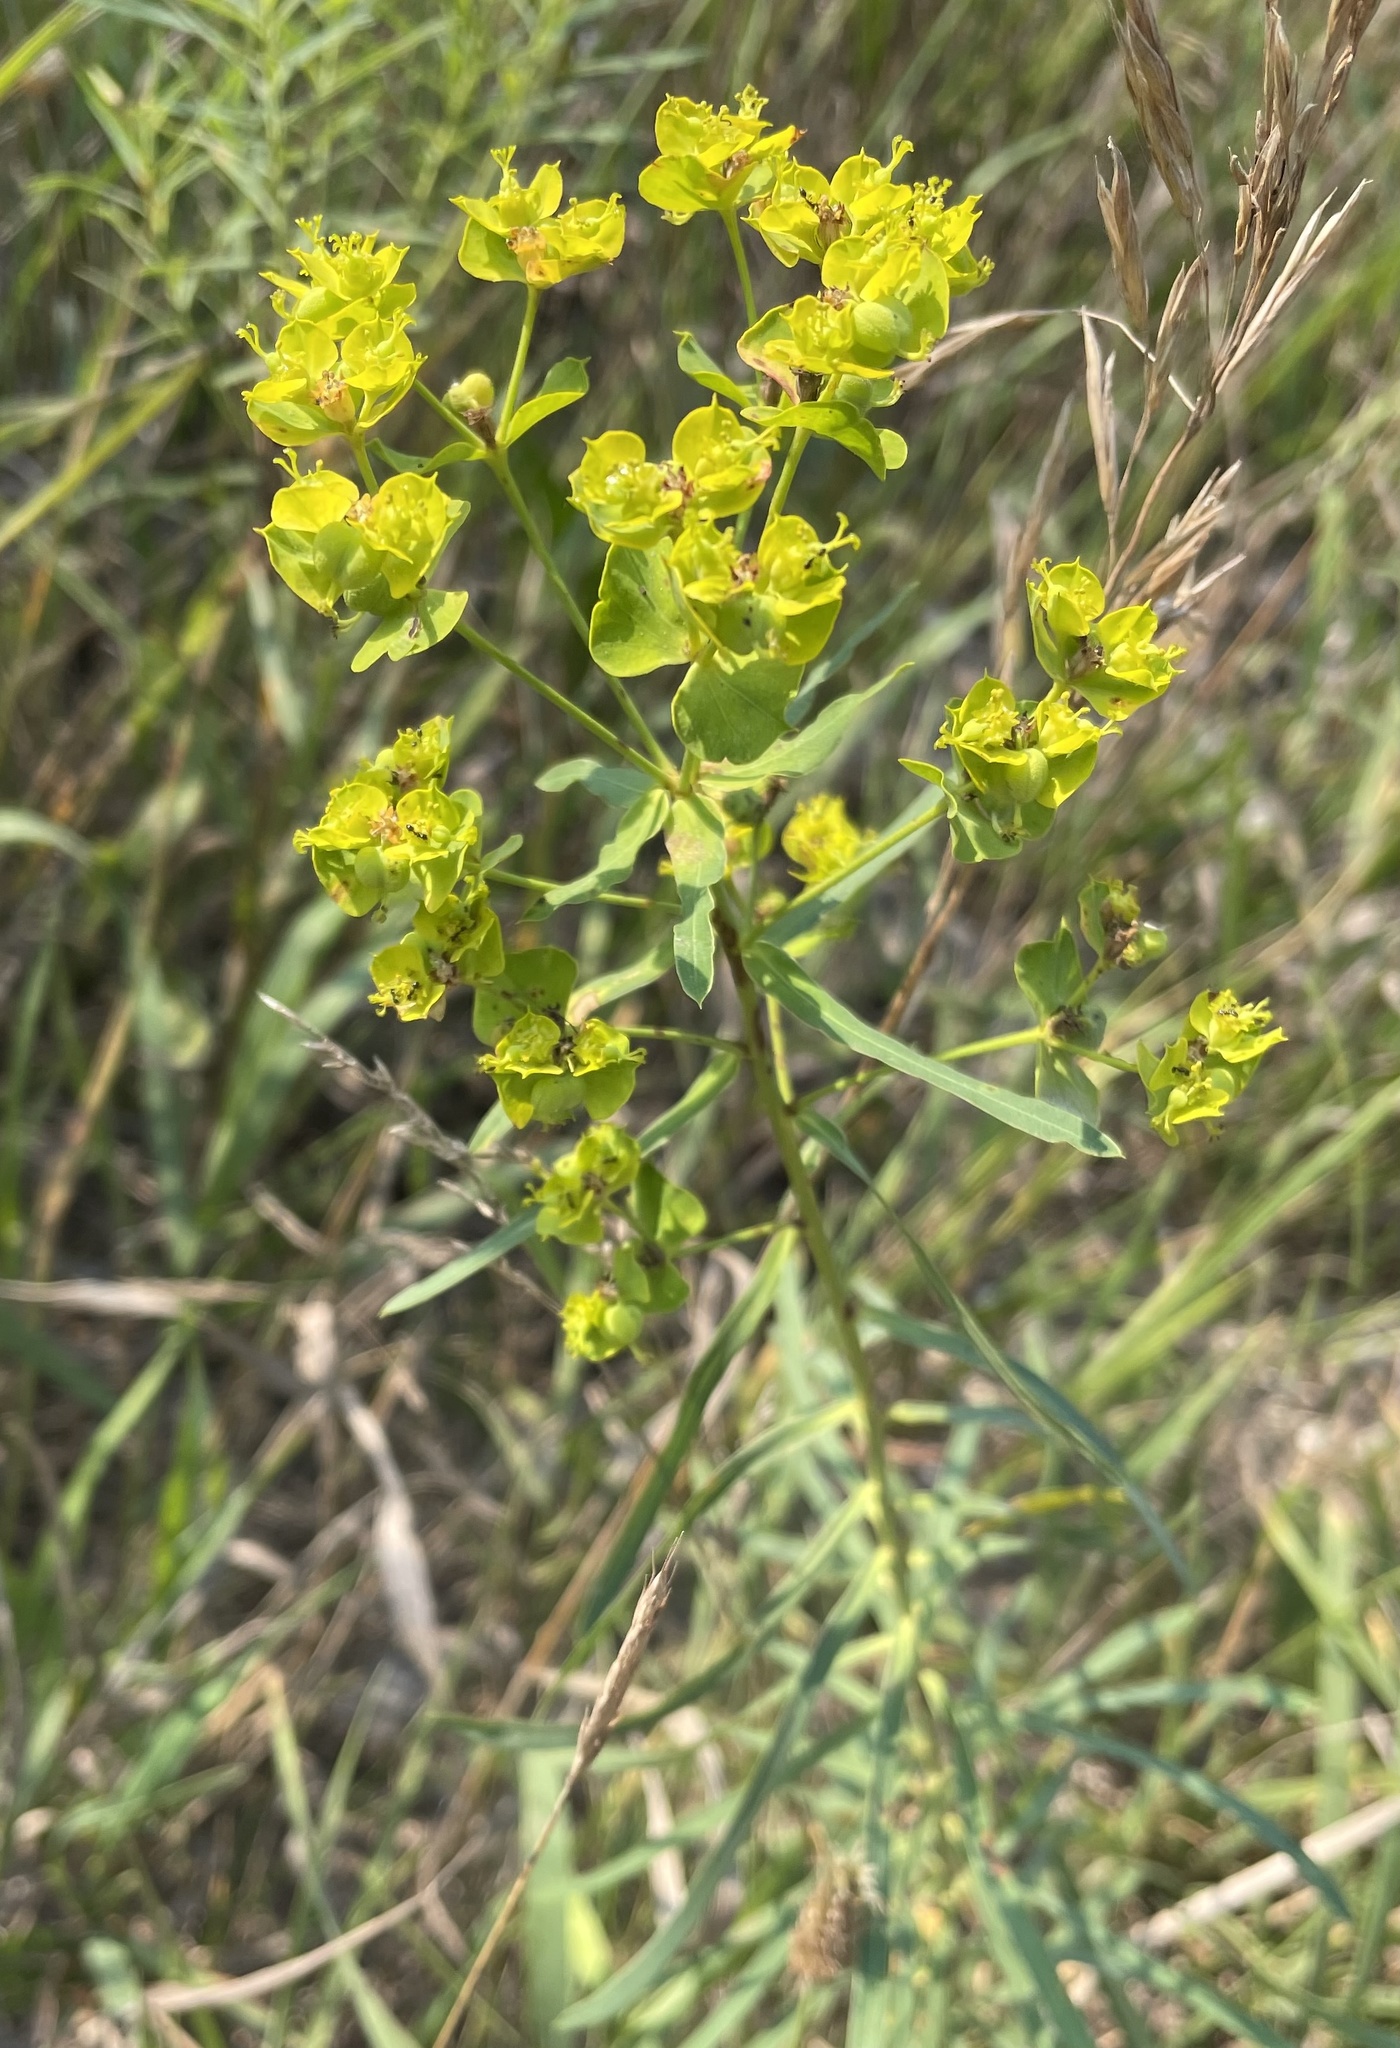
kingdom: Plantae
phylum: Tracheophyta
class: Magnoliopsida
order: Malpighiales
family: Euphorbiaceae
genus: Euphorbia
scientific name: Euphorbia virgata
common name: Leafy spurge
